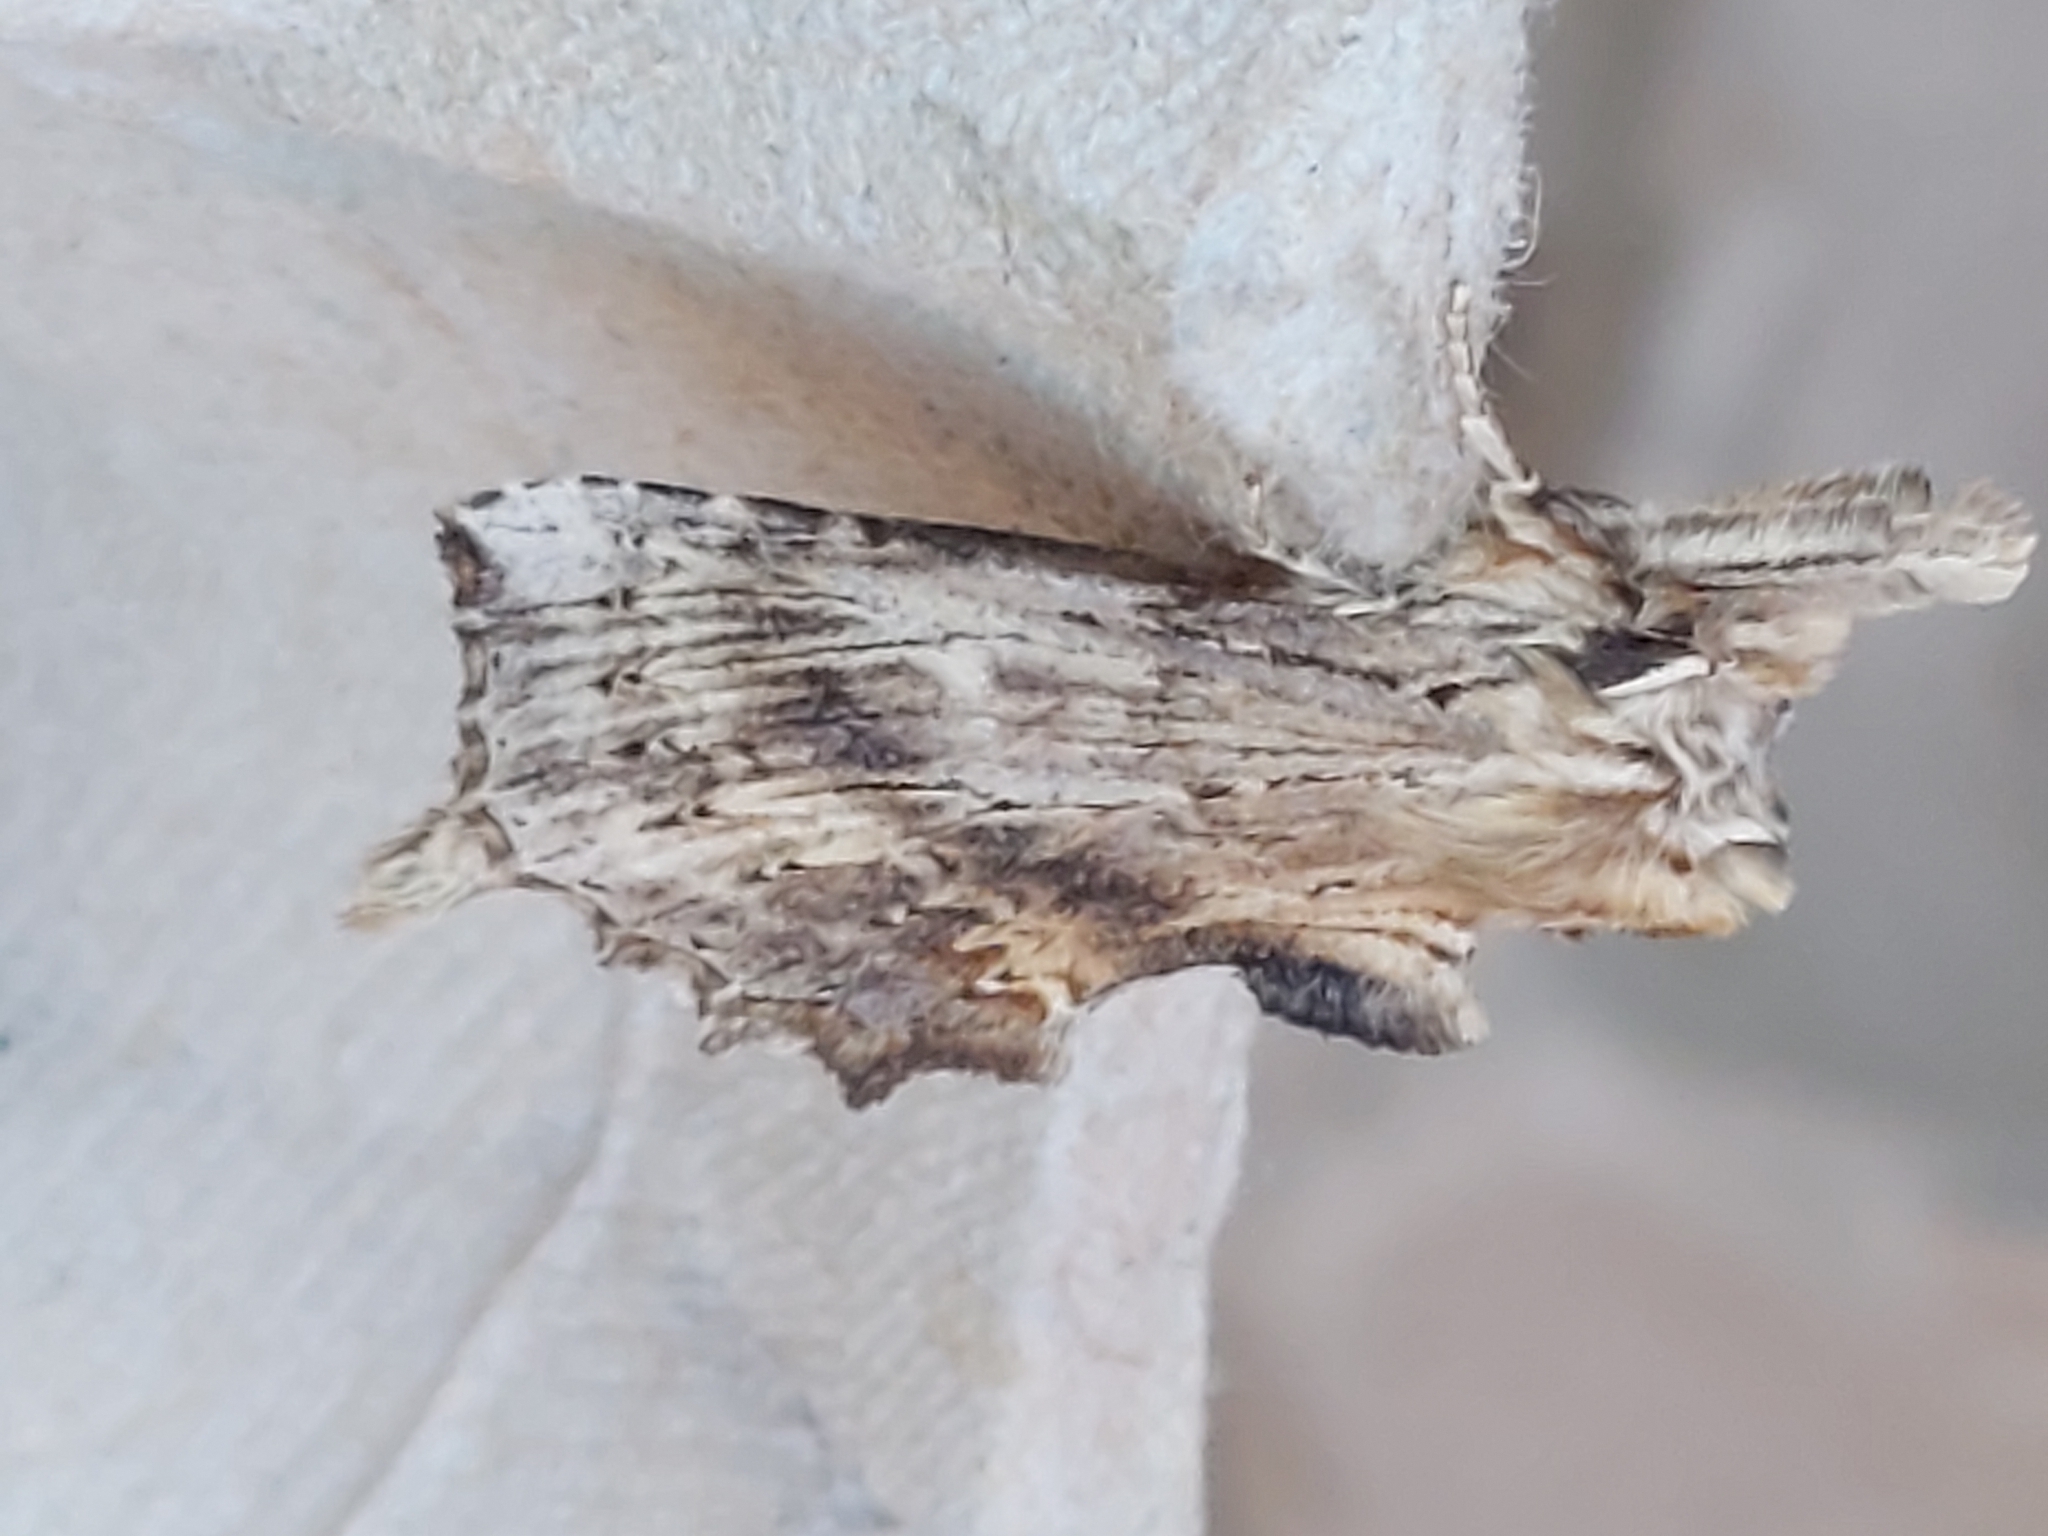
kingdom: Animalia
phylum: Arthropoda
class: Insecta
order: Lepidoptera
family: Notodontidae
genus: Pterostoma
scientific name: Pterostoma palpina
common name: Pale prominent
